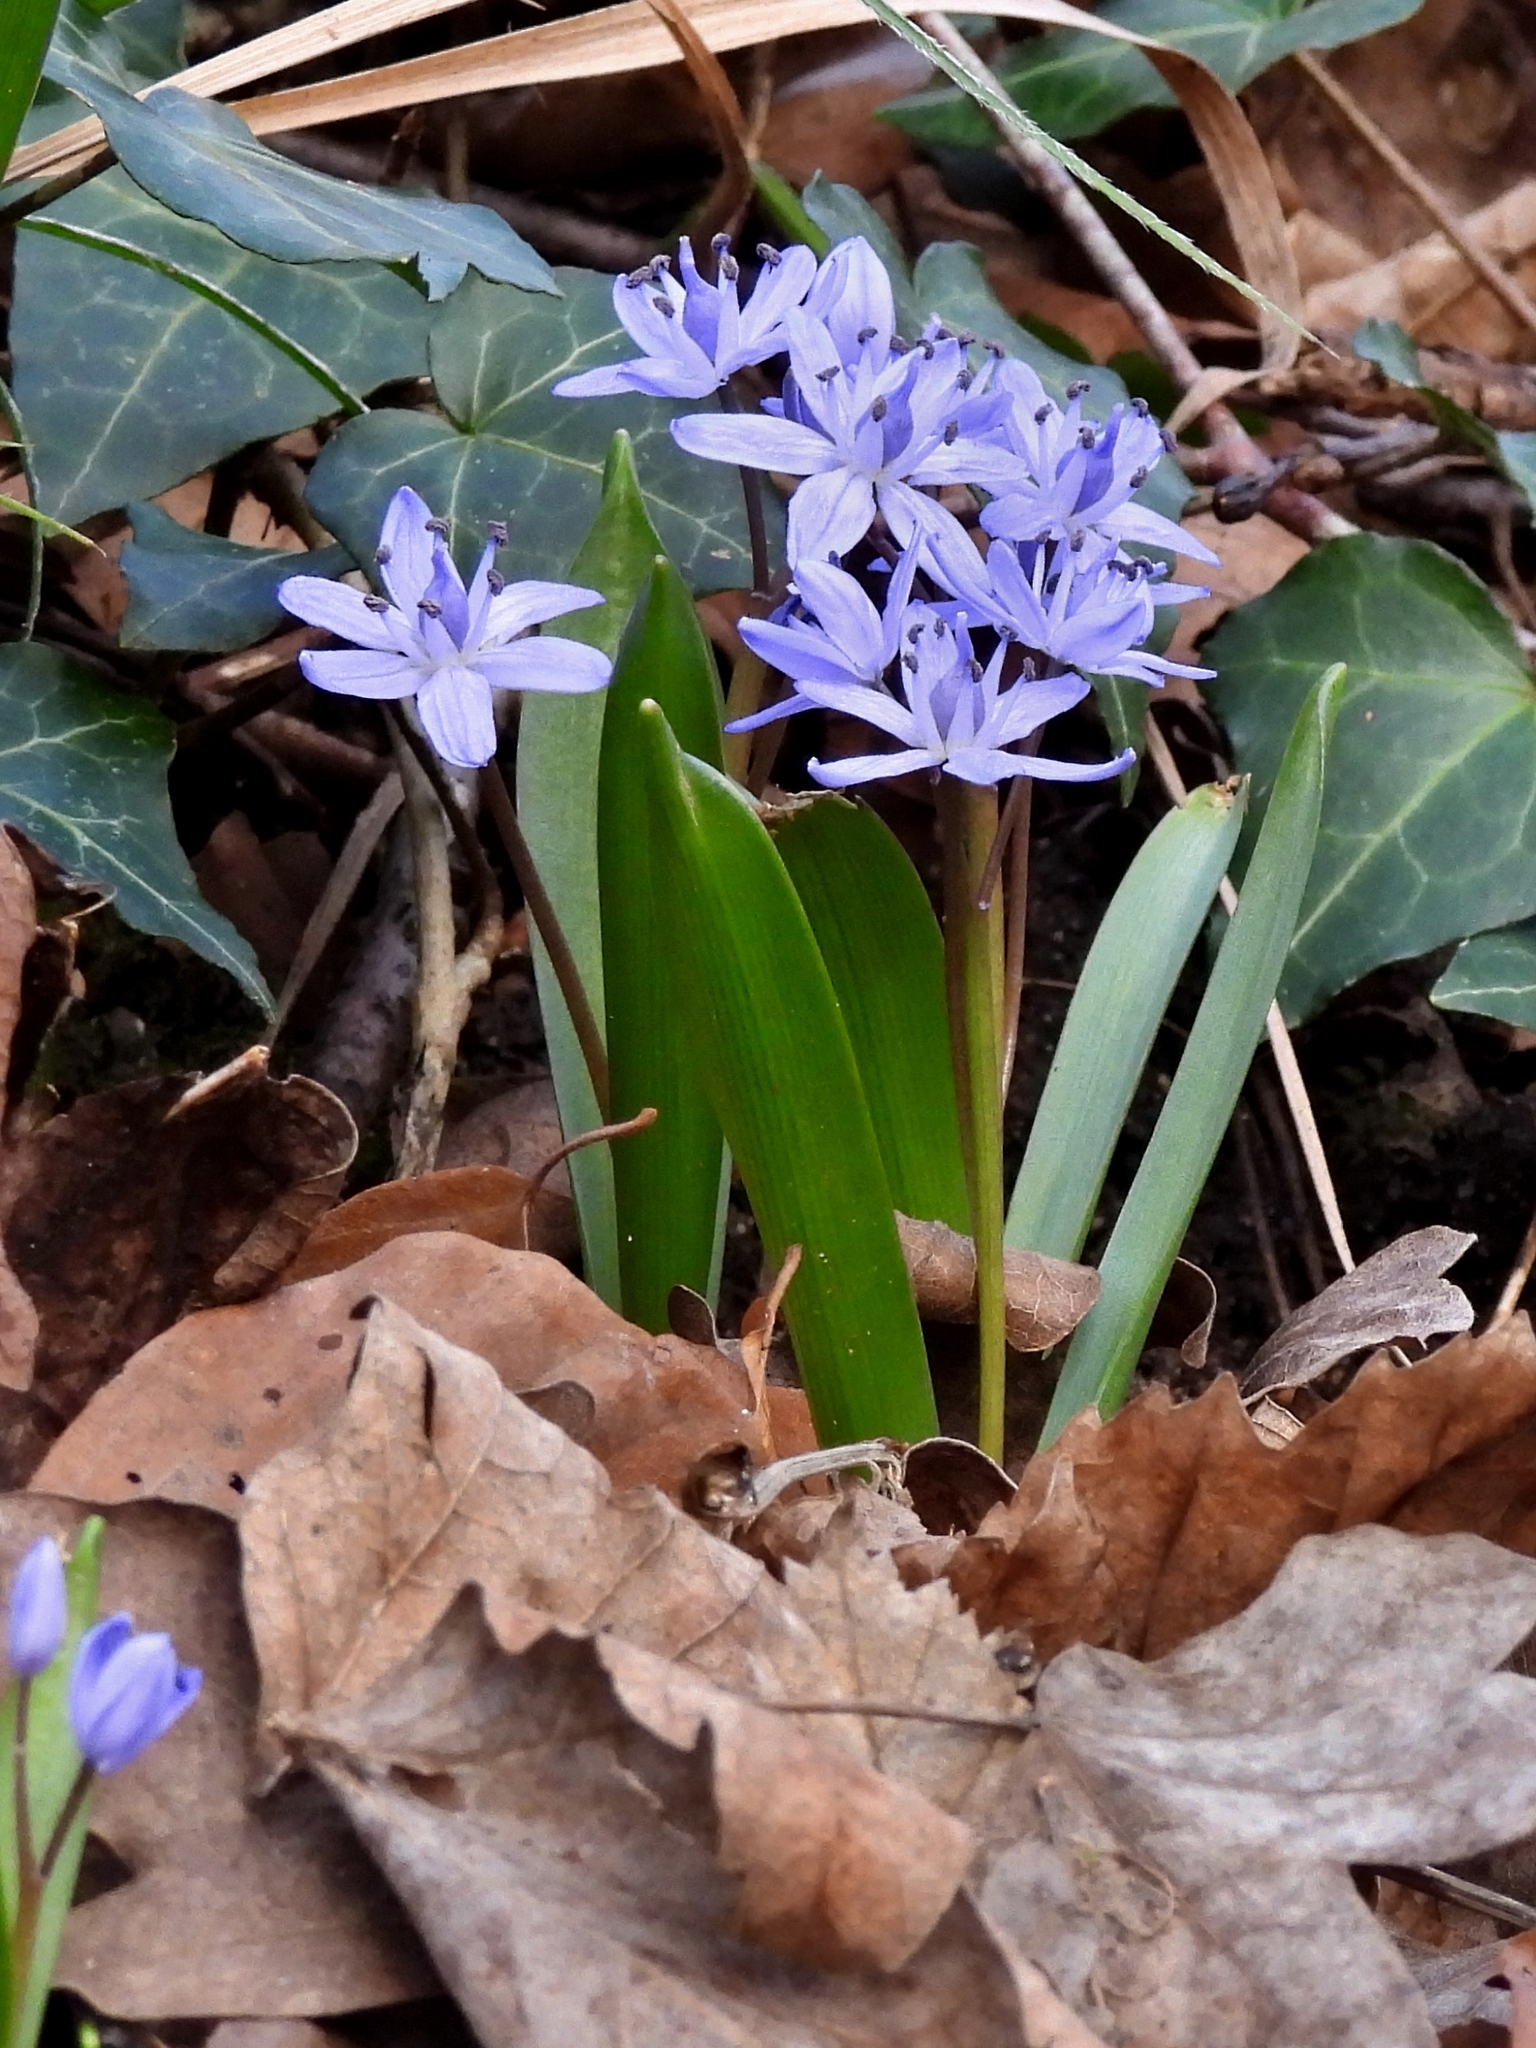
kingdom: Plantae
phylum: Tracheophyta
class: Liliopsida
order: Asparagales
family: Asparagaceae
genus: Scilla
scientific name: Scilla bifolia
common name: Alpine squill
